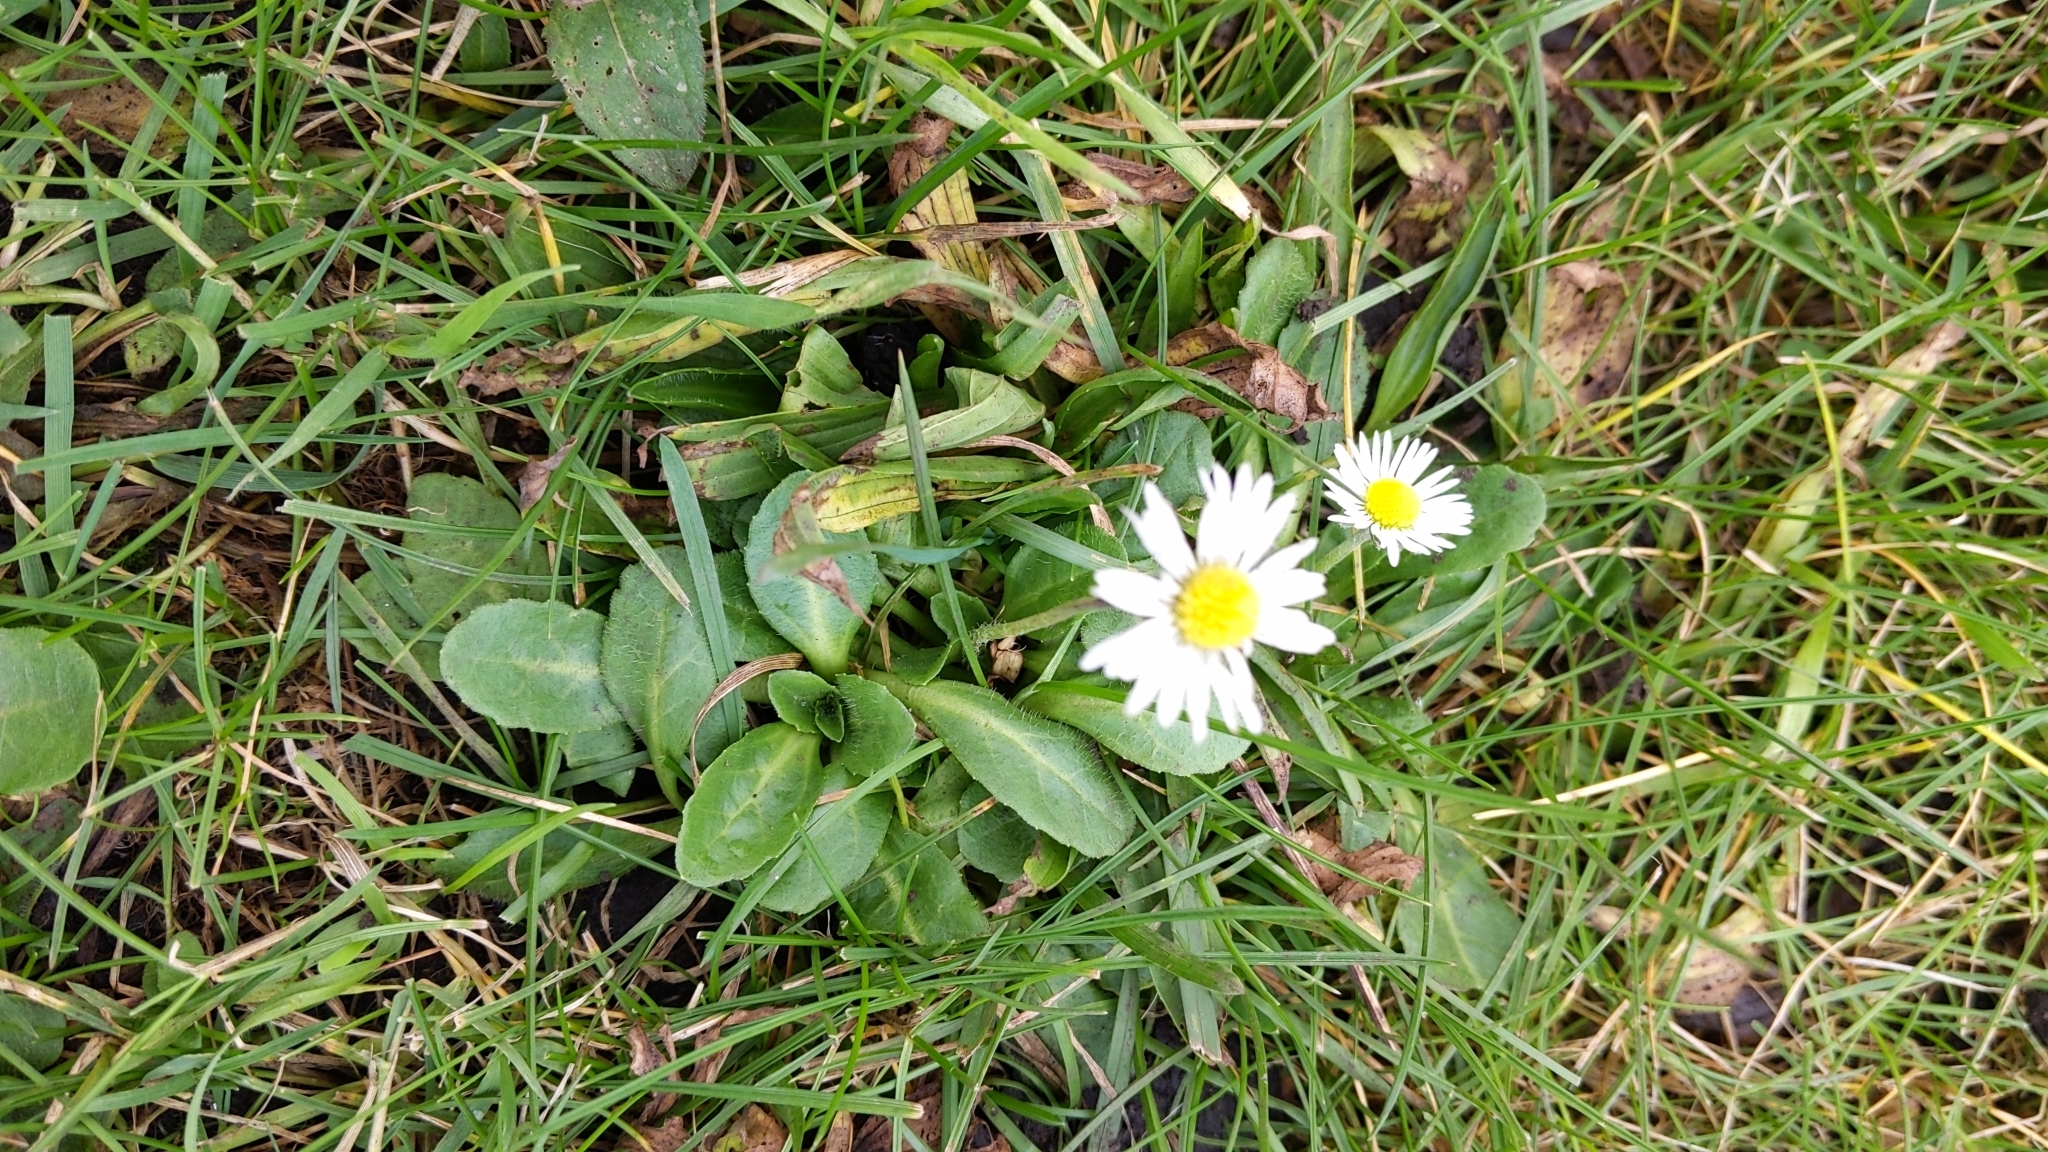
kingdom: Plantae
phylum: Tracheophyta
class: Magnoliopsida
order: Asterales
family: Asteraceae
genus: Bellis
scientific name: Bellis perennis
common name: Lawndaisy
